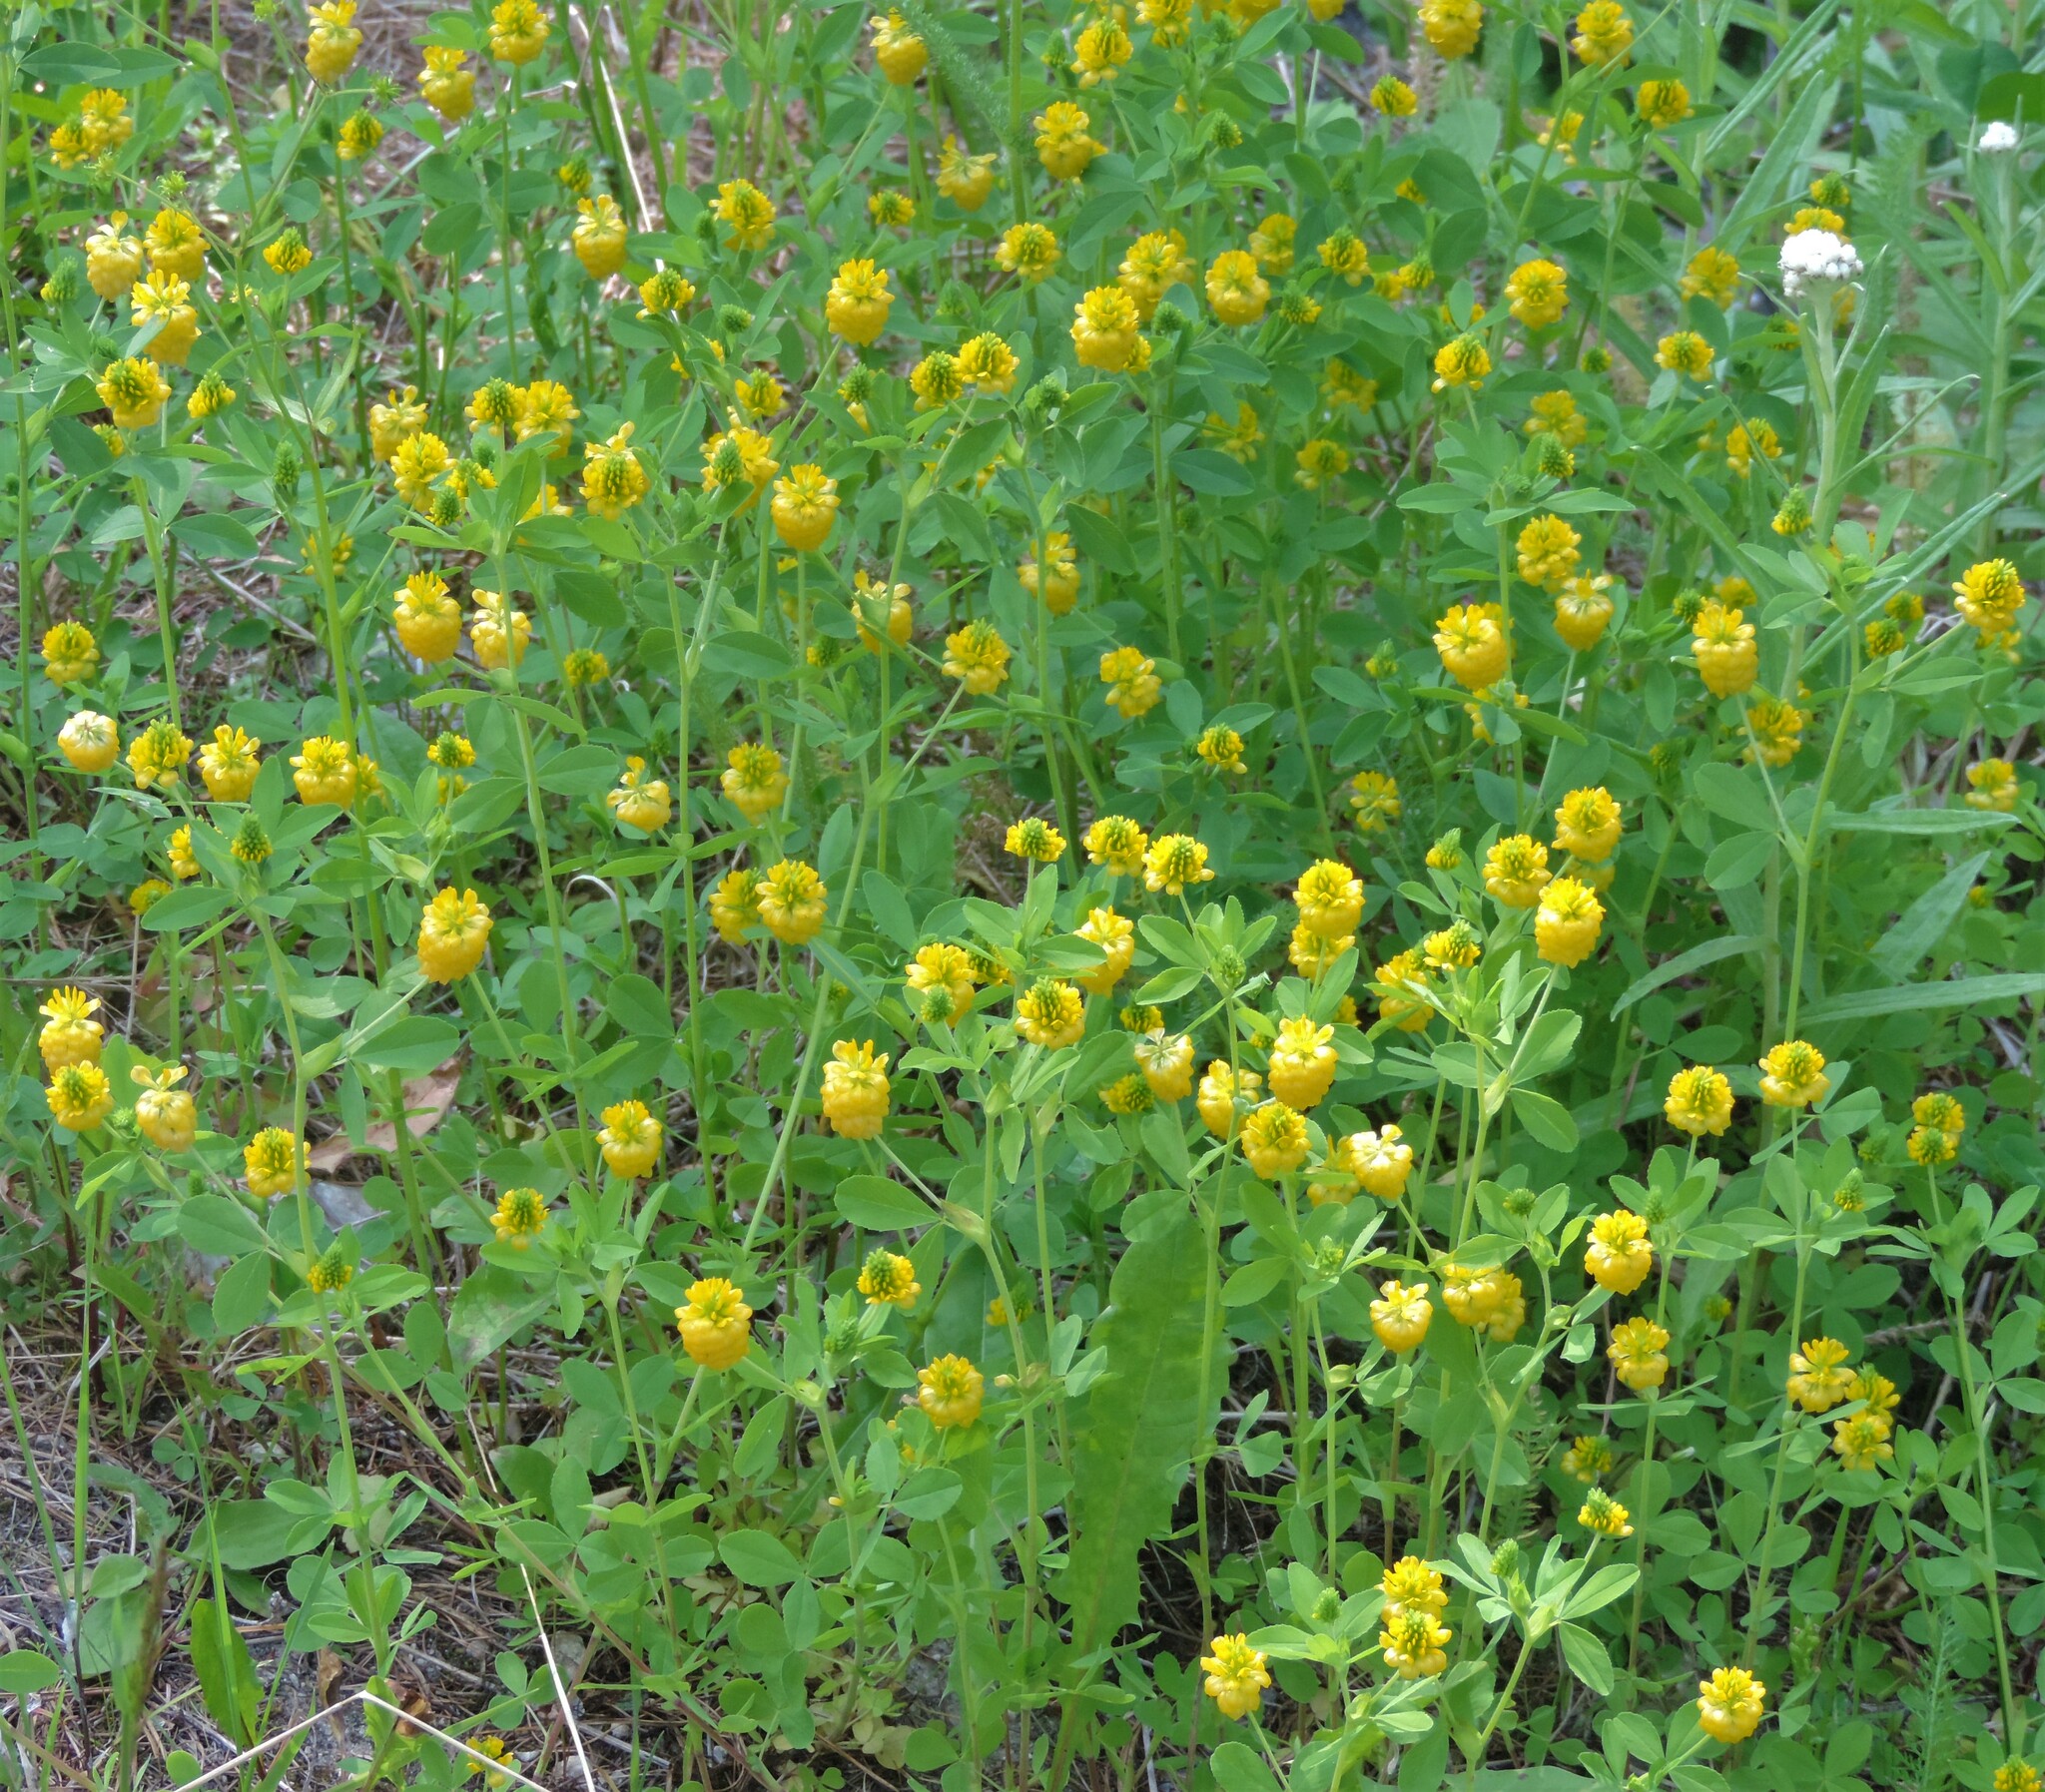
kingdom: Plantae
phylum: Tracheophyta
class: Magnoliopsida
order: Fabales
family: Fabaceae
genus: Trifolium
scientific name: Trifolium aureum
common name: Golden clover
